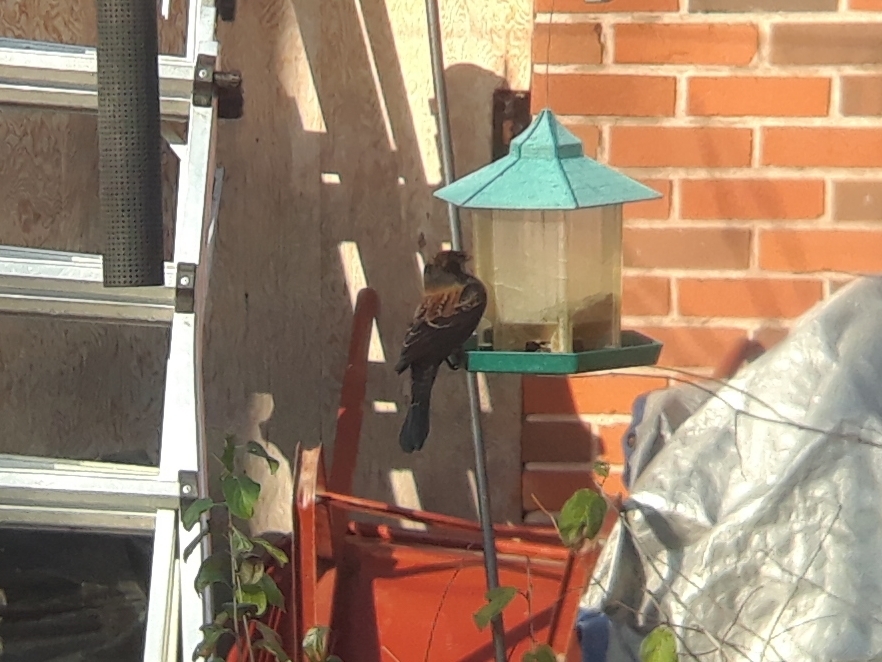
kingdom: Animalia
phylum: Chordata
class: Aves
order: Passeriformes
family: Icteridae
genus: Agelaius
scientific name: Agelaius phoeniceus
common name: Red-winged blackbird
